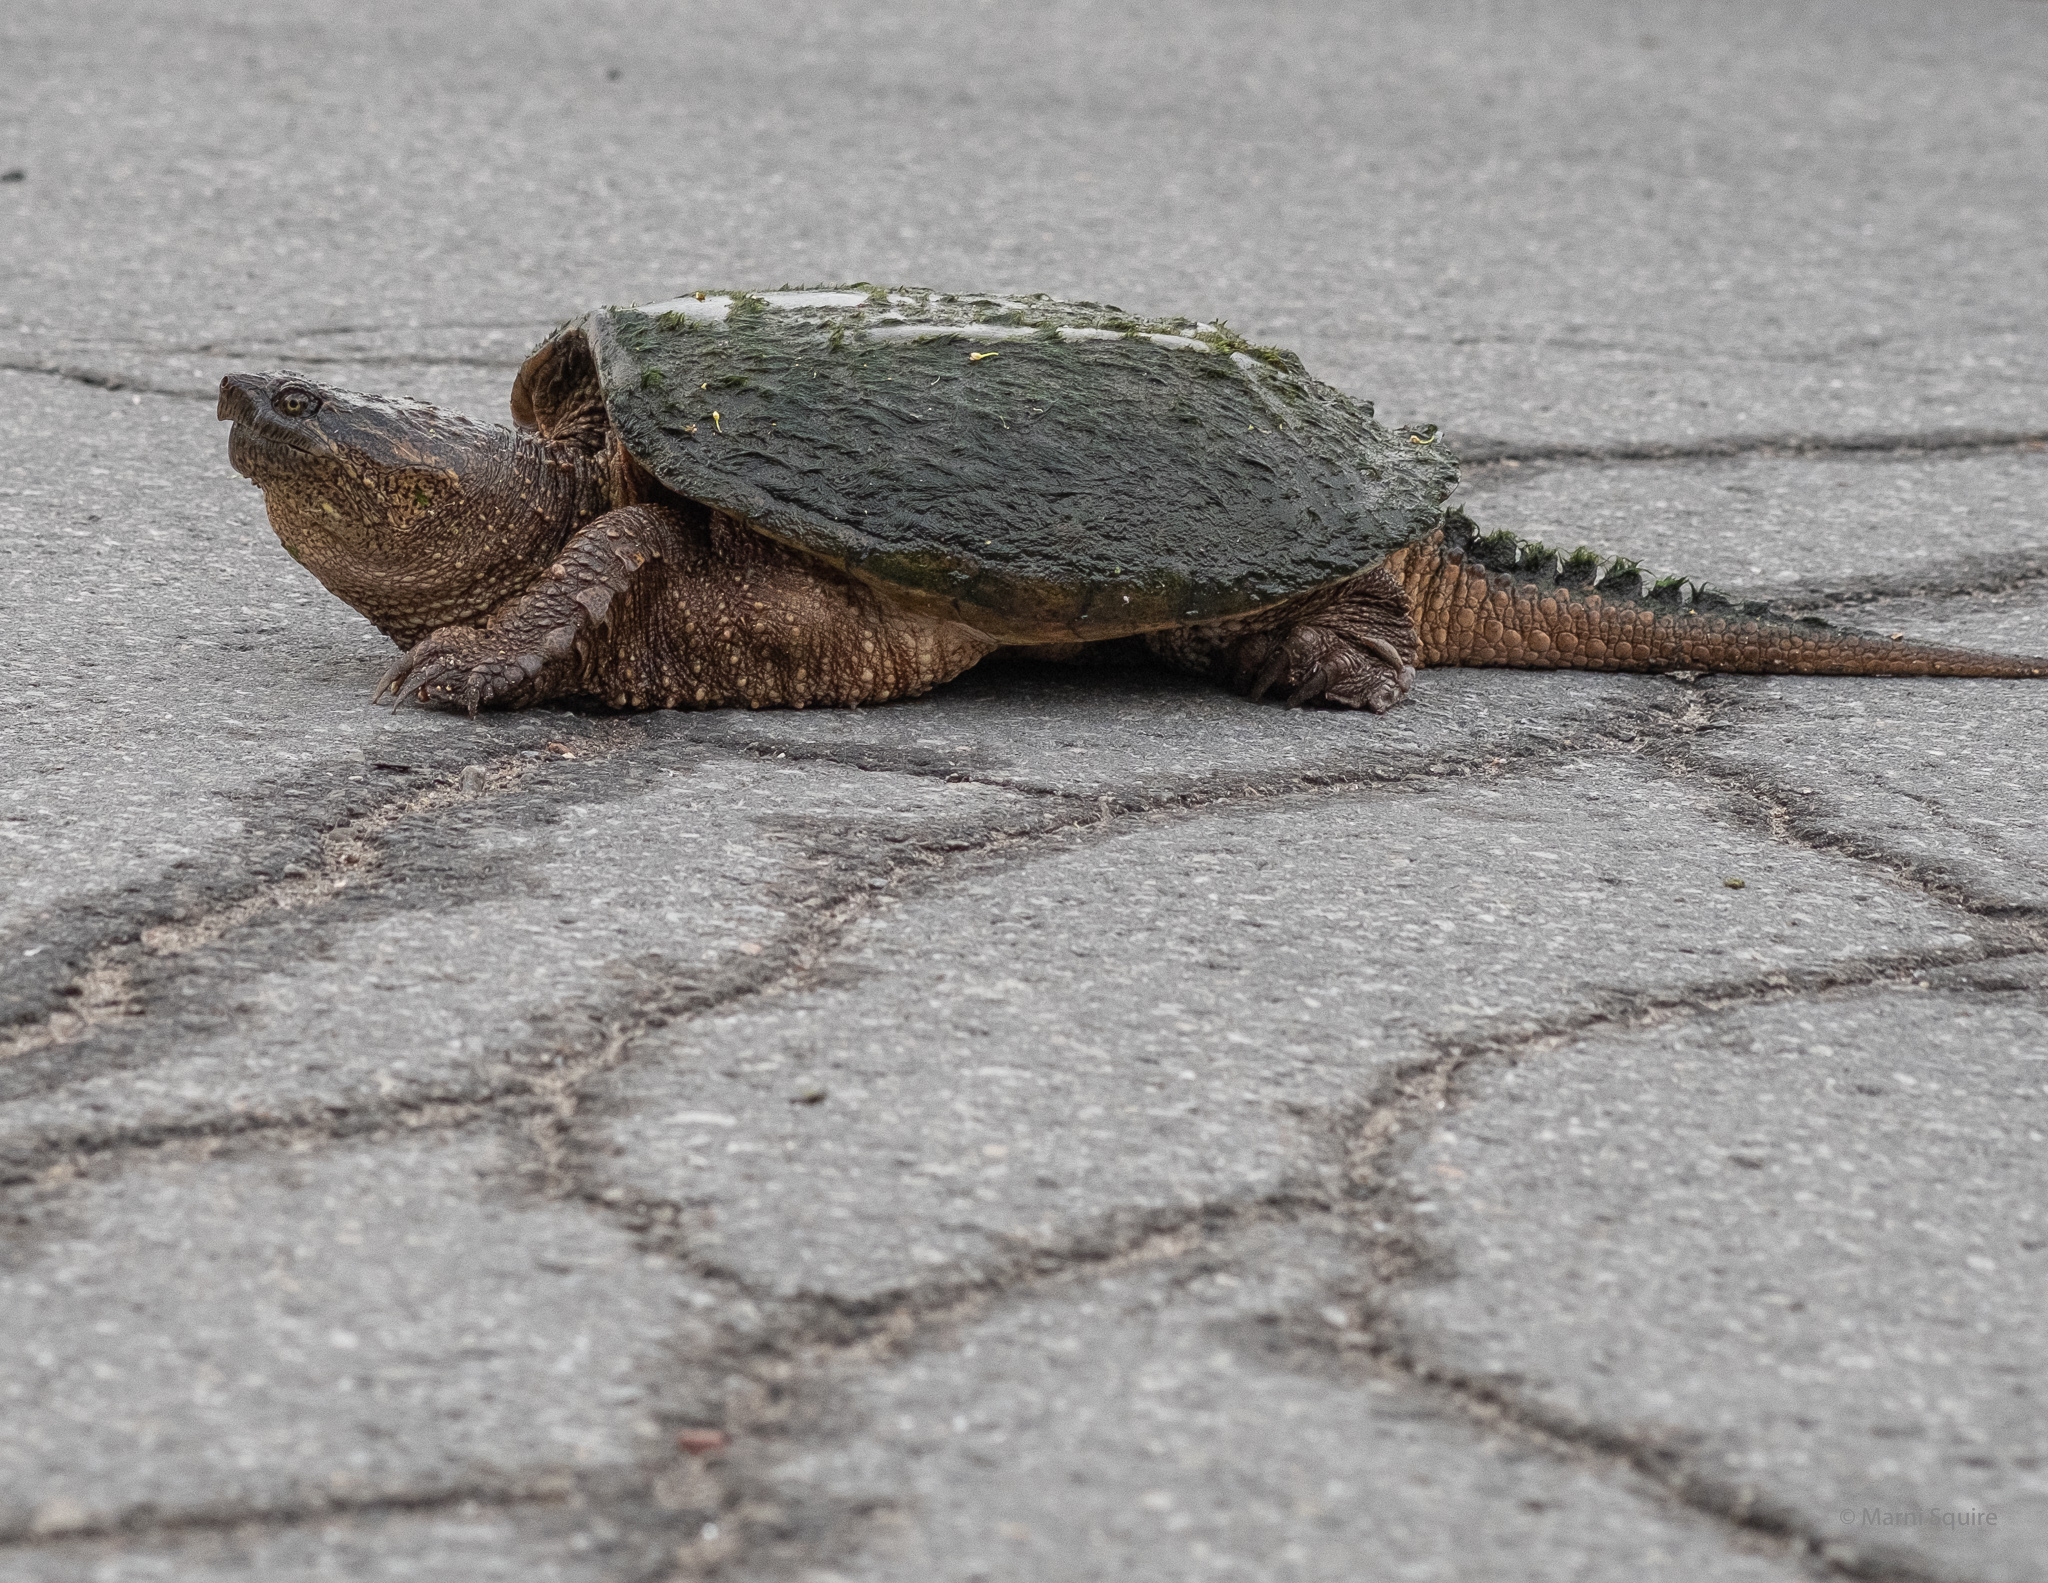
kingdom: Animalia
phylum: Chordata
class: Testudines
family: Chelydridae
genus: Chelydra
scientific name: Chelydra serpentina
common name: Common snapping turtle
